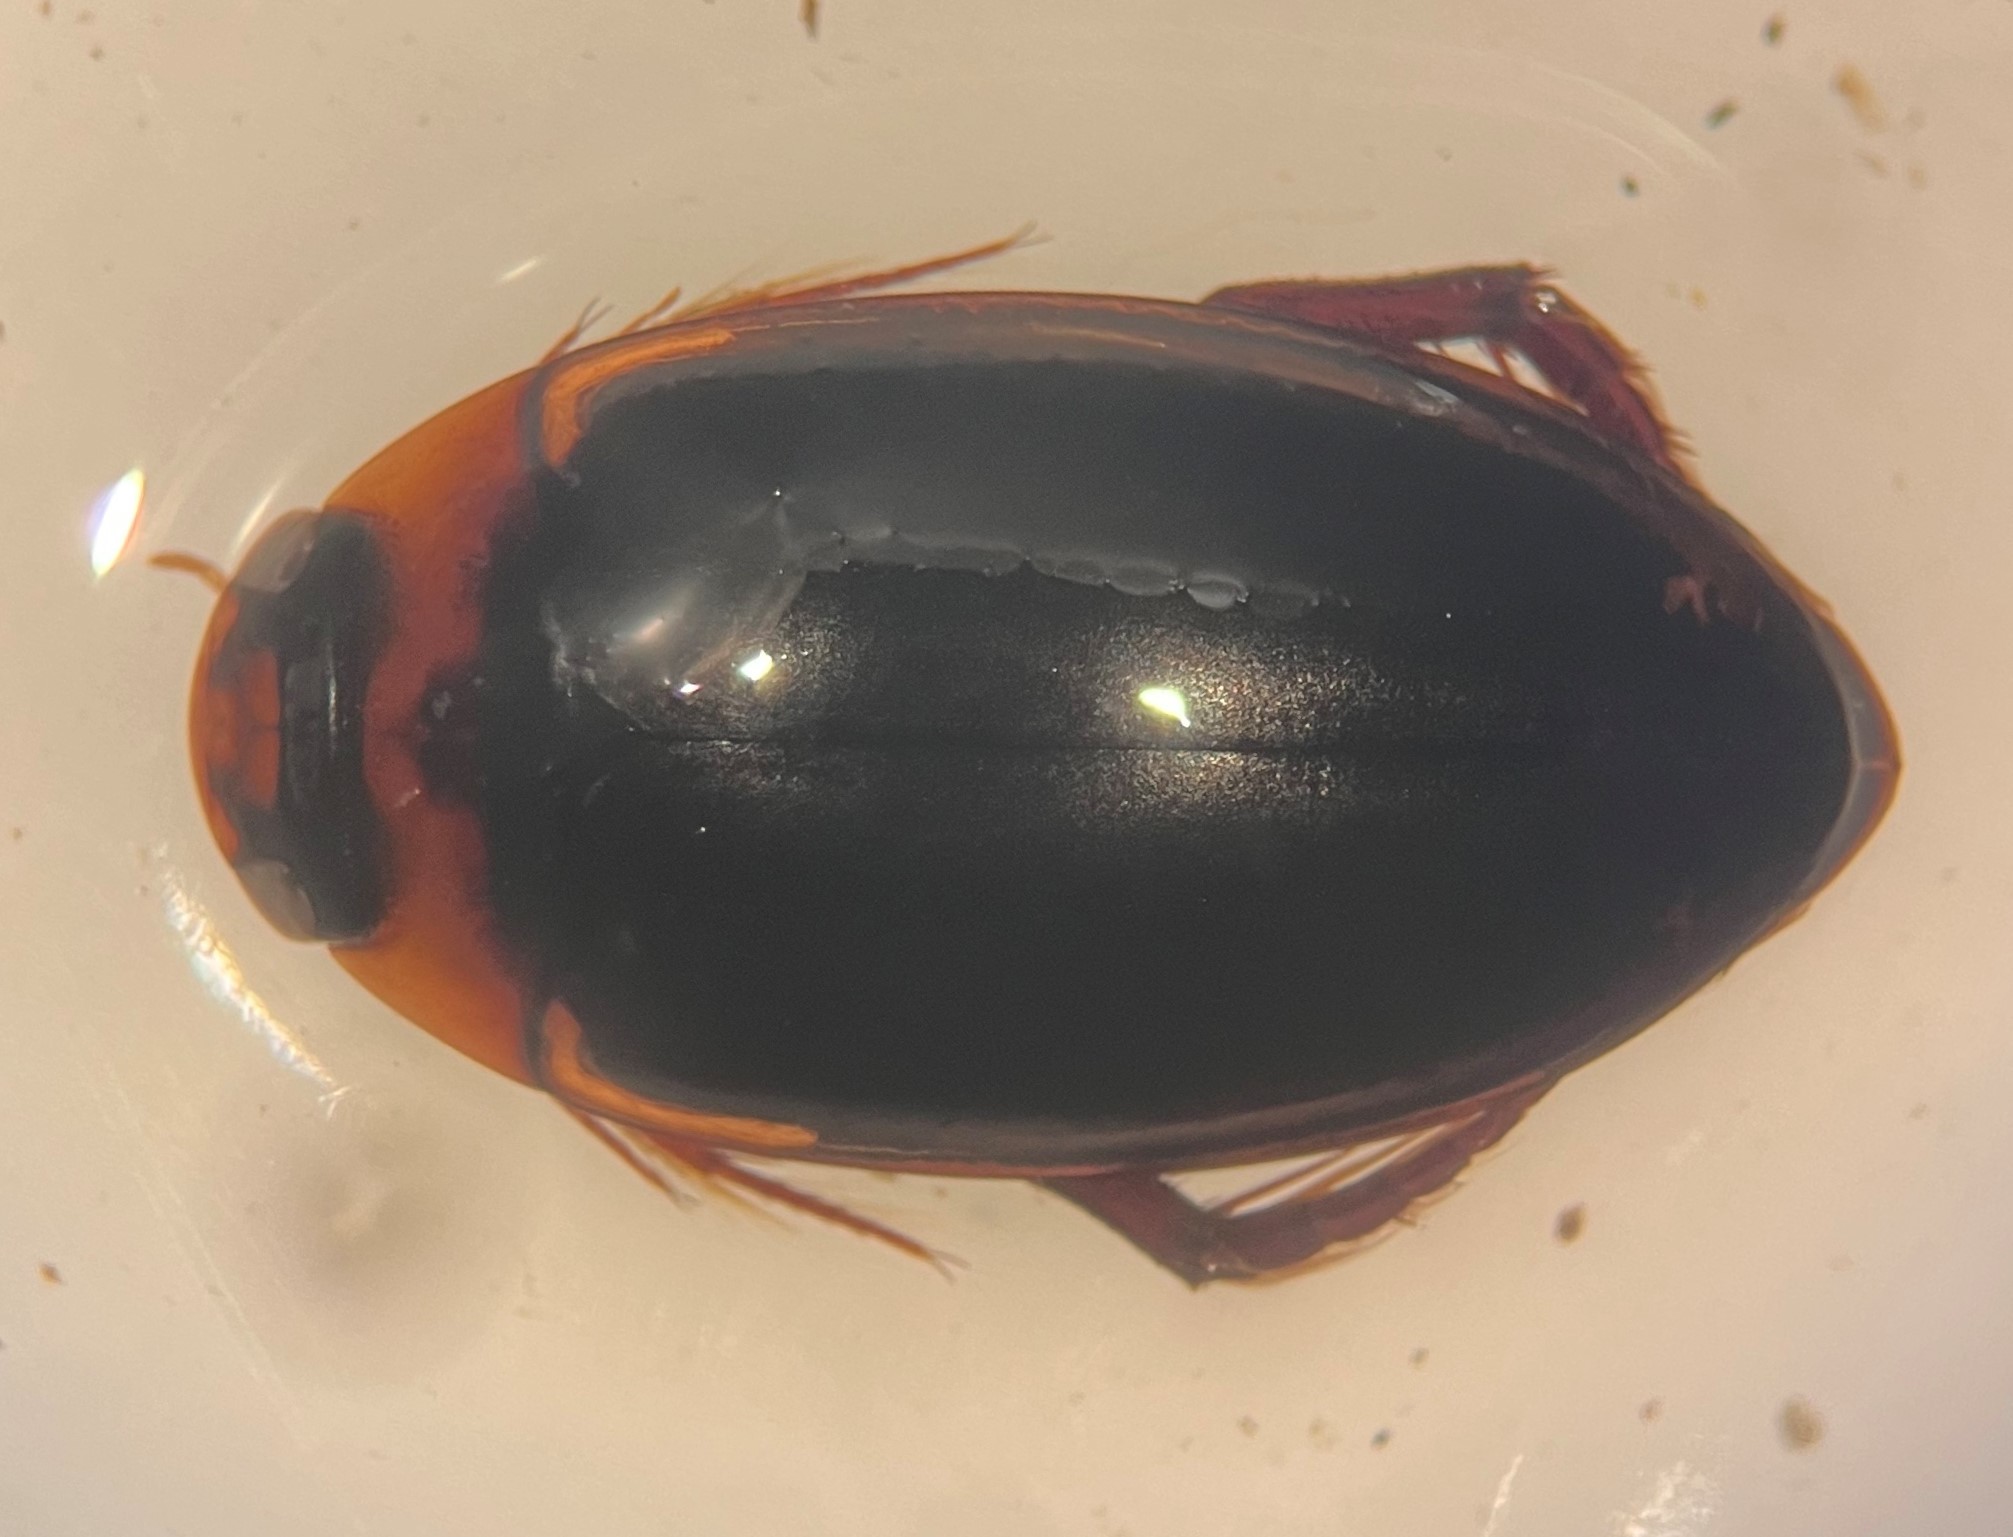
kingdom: Animalia
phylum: Arthropoda
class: Insecta
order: Coleoptera
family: Dytiscidae
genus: Hydaticus
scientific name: Hydaticus bimarginatus
